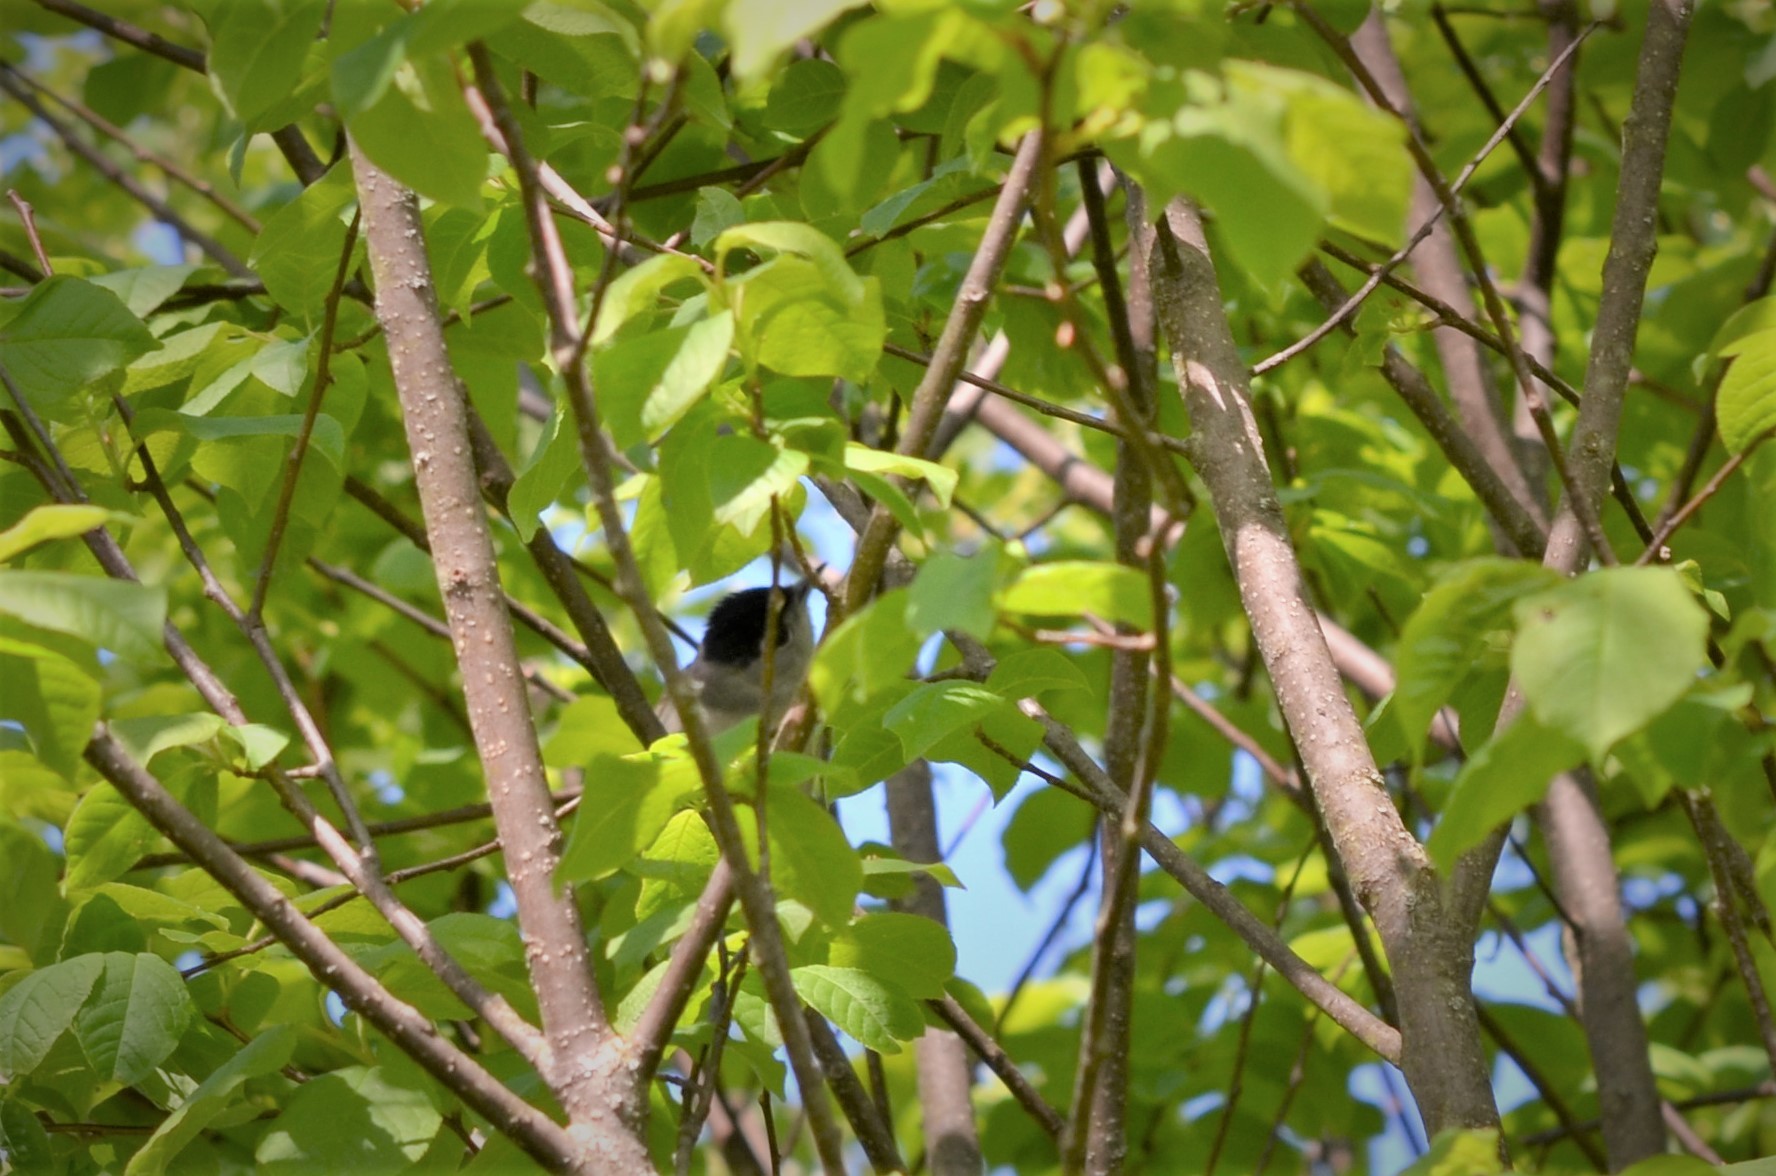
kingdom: Animalia
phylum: Chordata
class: Aves
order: Passeriformes
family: Sylviidae
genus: Sylvia
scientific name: Sylvia atricapilla
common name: Eurasian blackcap
